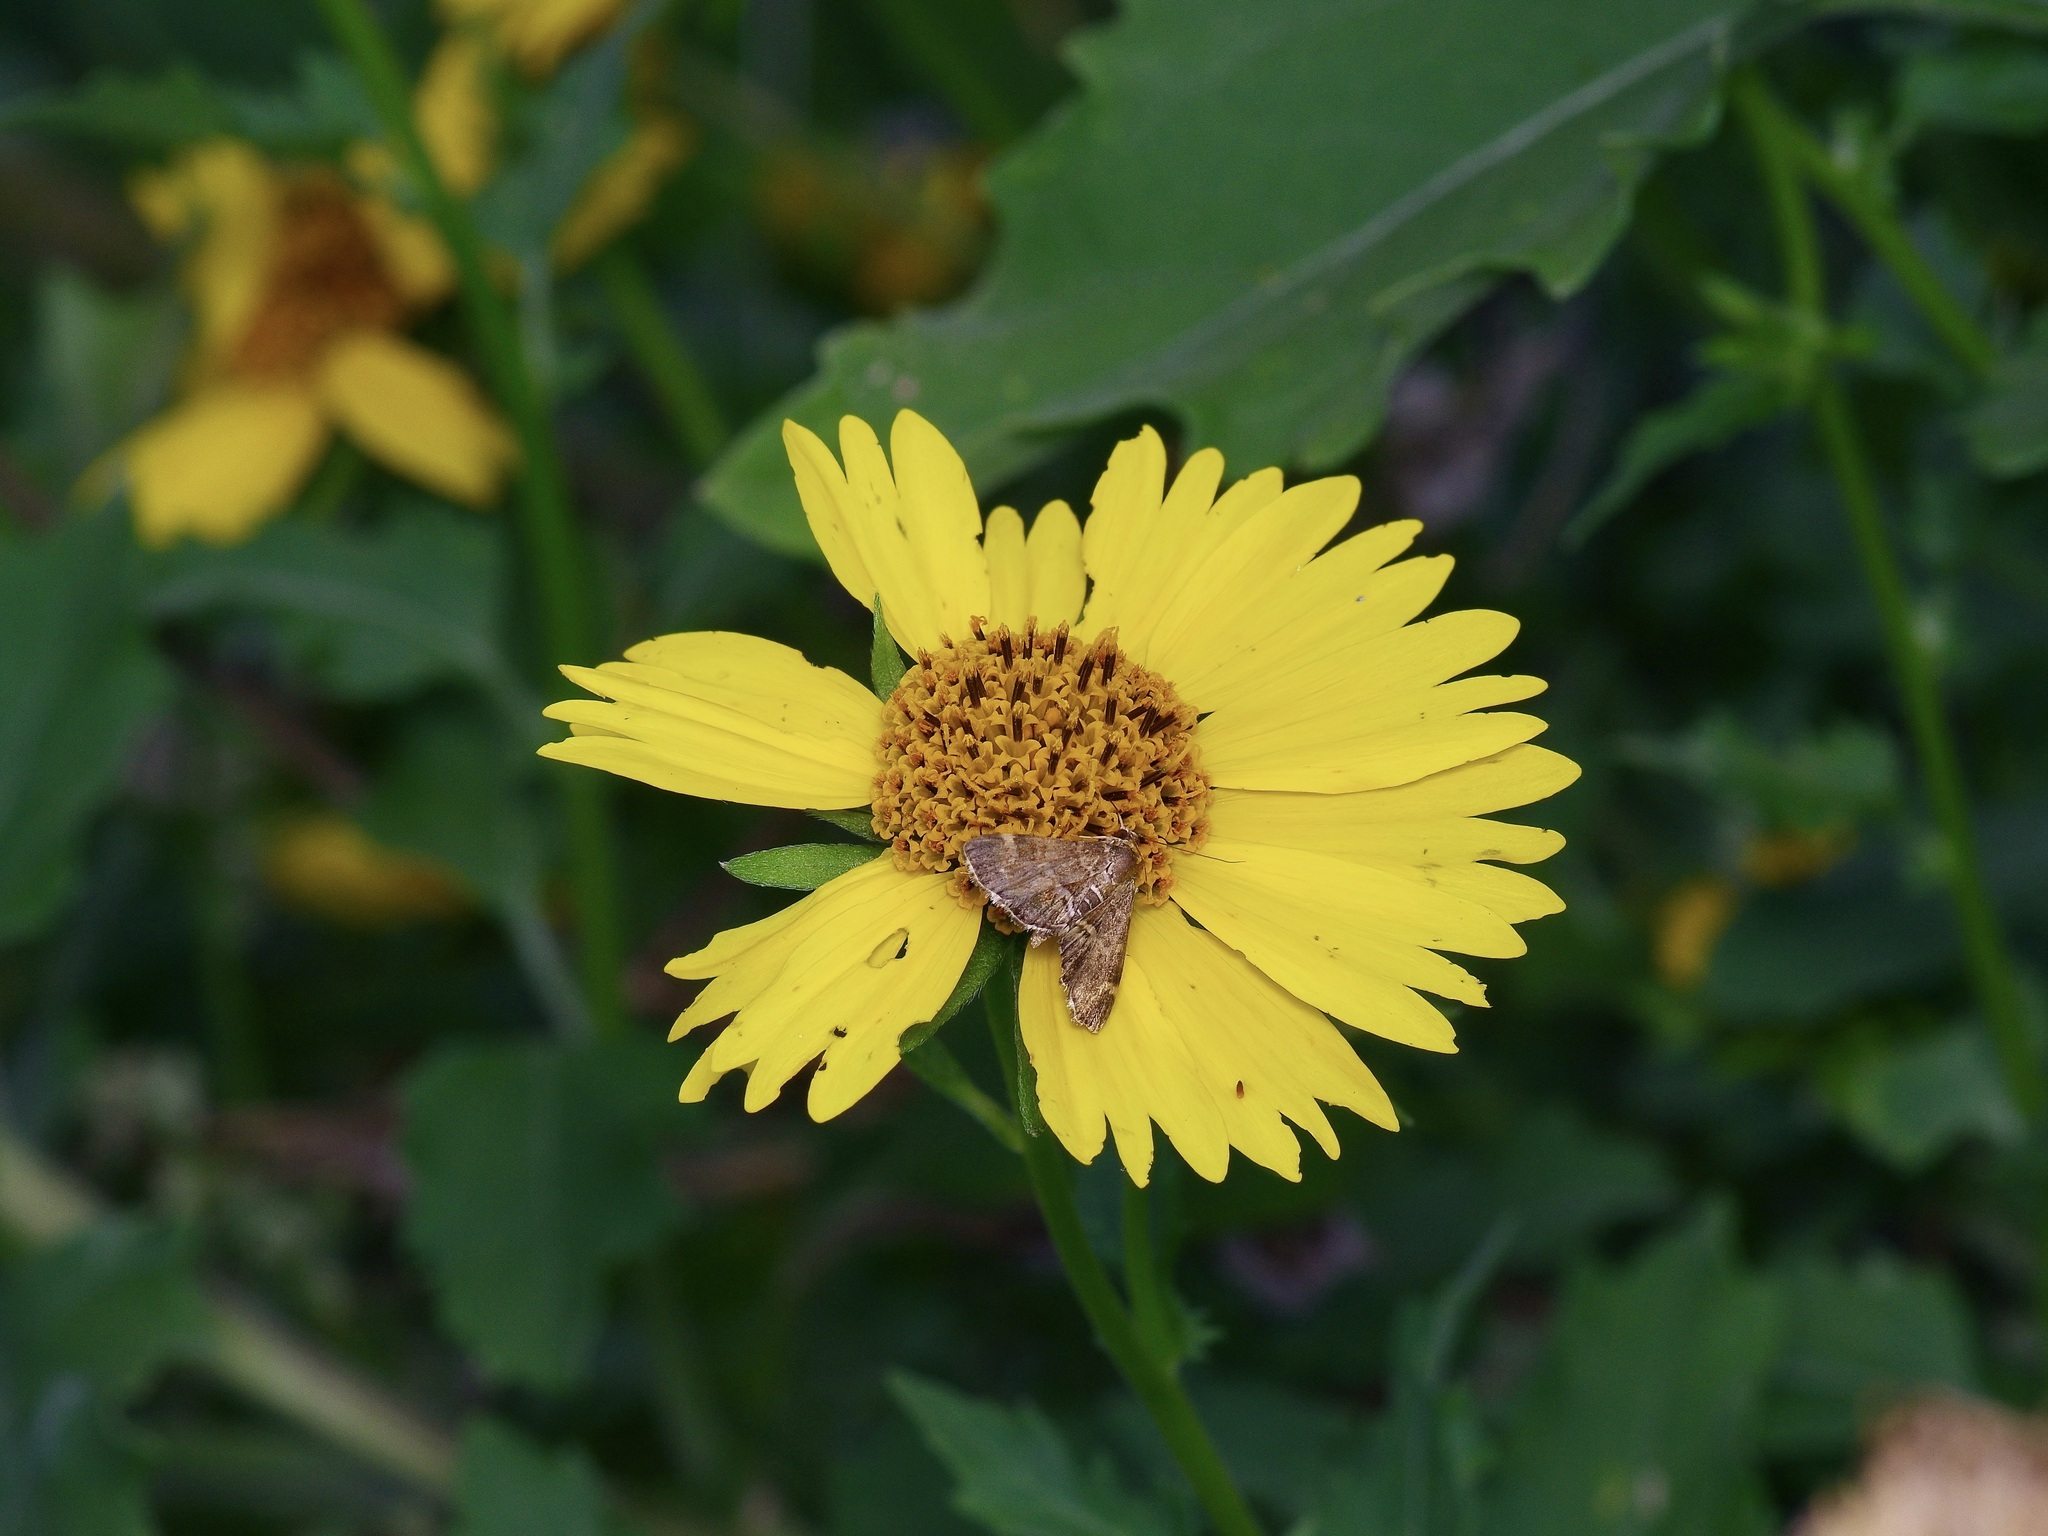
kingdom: Animalia
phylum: Arthropoda
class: Insecta
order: Lepidoptera
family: Crambidae
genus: Hymenia
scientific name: Hymenia perspectalis
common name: Spotted beet webworm
